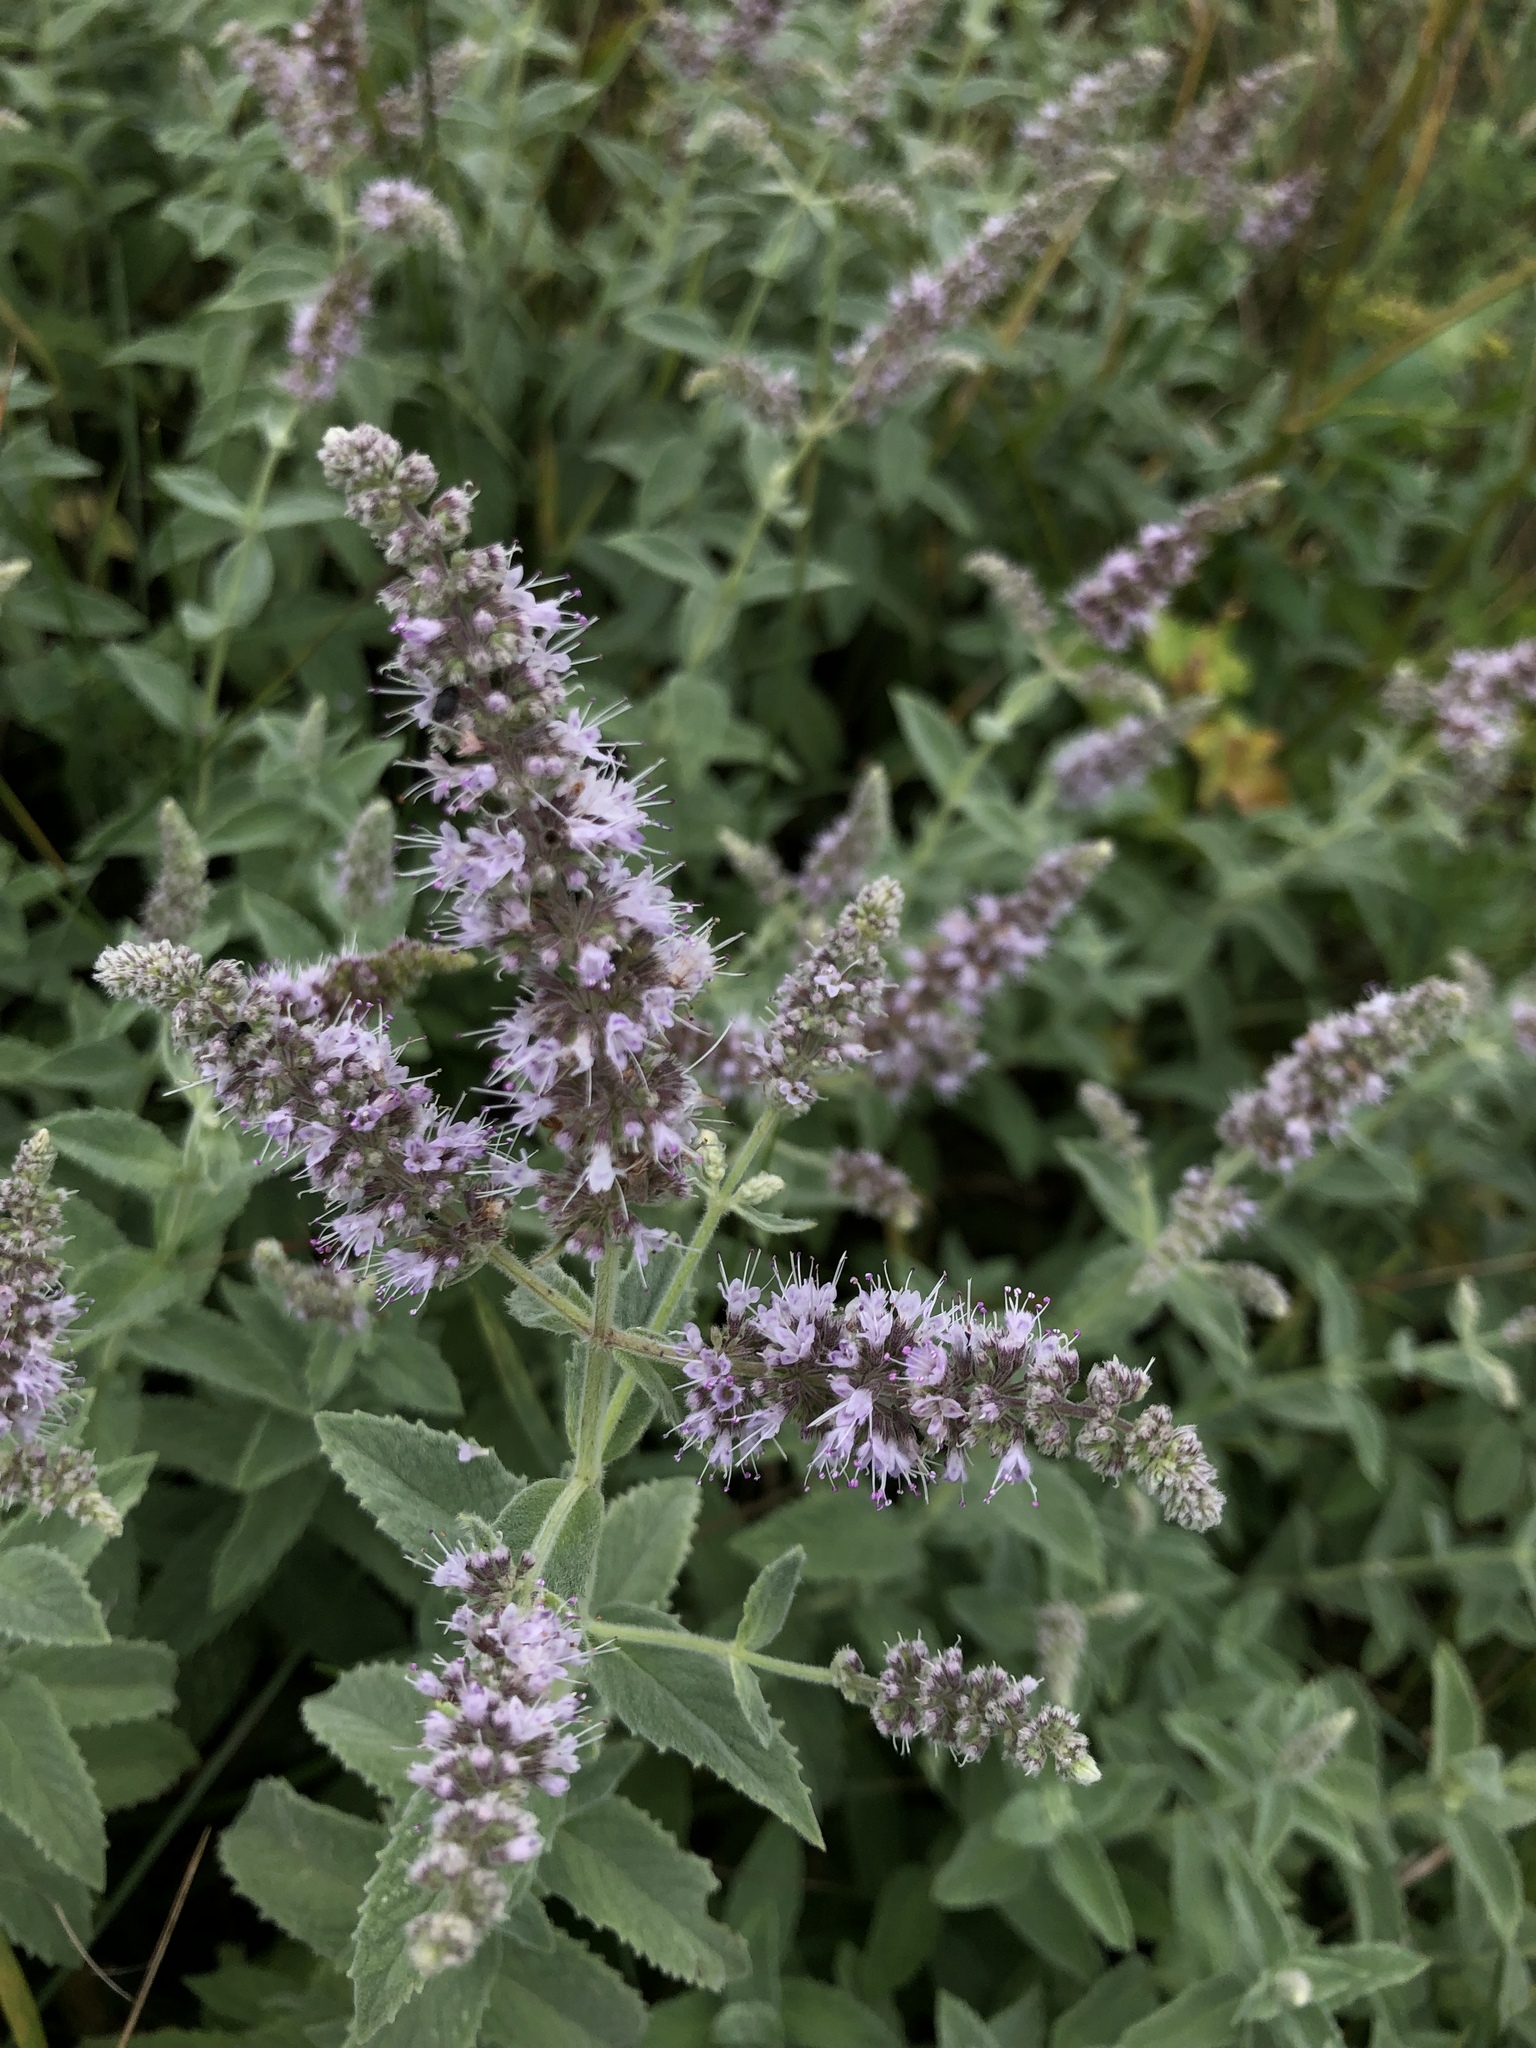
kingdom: Plantae
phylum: Tracheophyta
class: Magnoliopsida
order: Lamiales
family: Lamiaceae
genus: Mentha
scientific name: Mentha longifolia
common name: Horse mint
